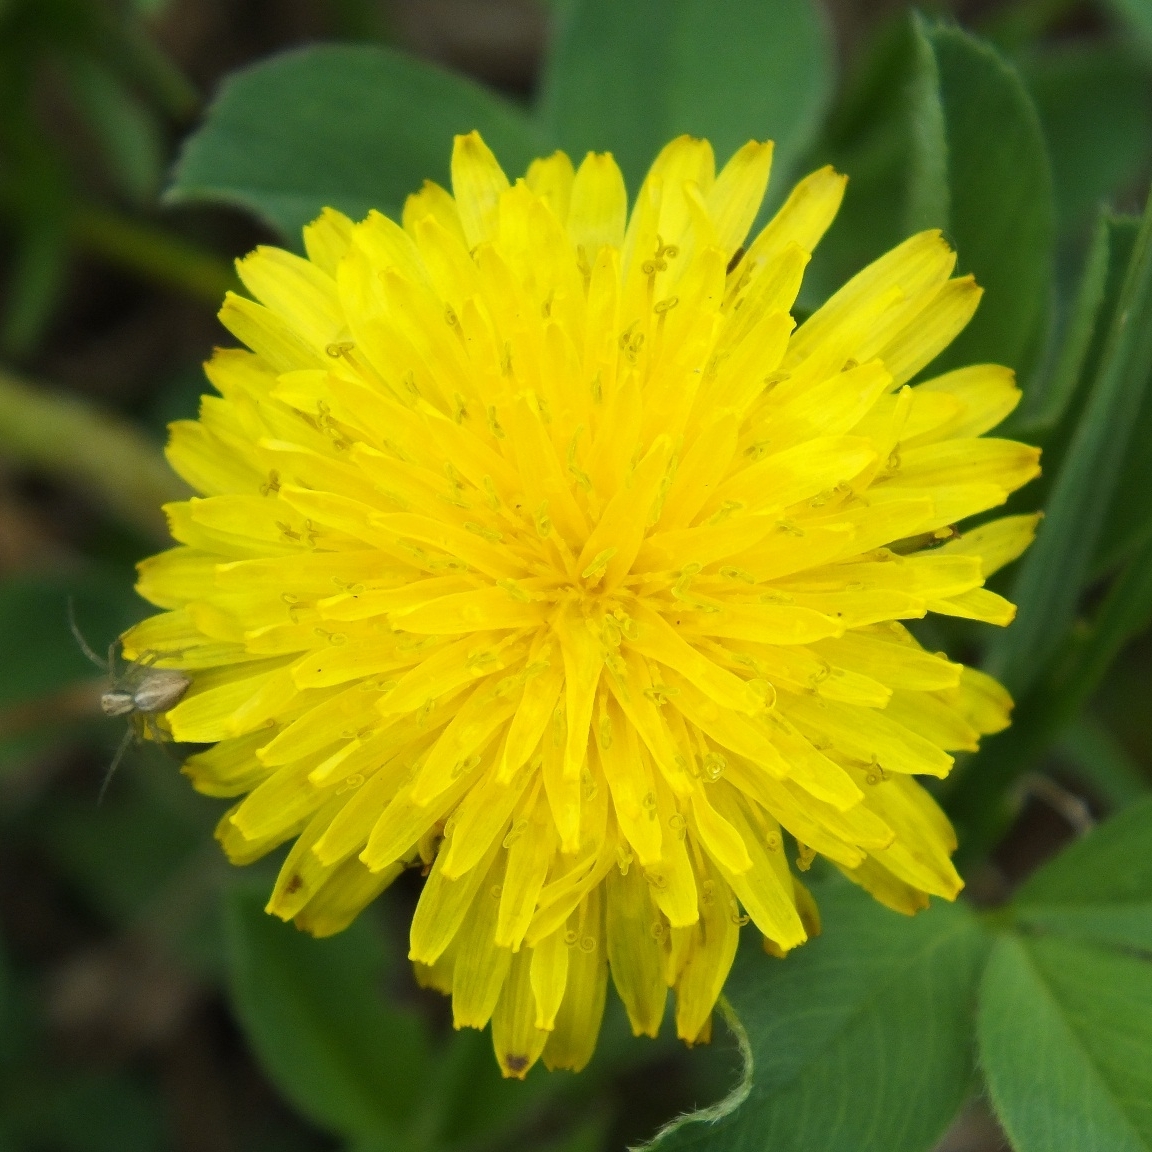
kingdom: Plantae
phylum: Tracheophyta
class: Magnoliopsida
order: Asterales
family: Asteraceae
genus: Taraxacum
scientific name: Taraxacum officinale
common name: Common dandelion
